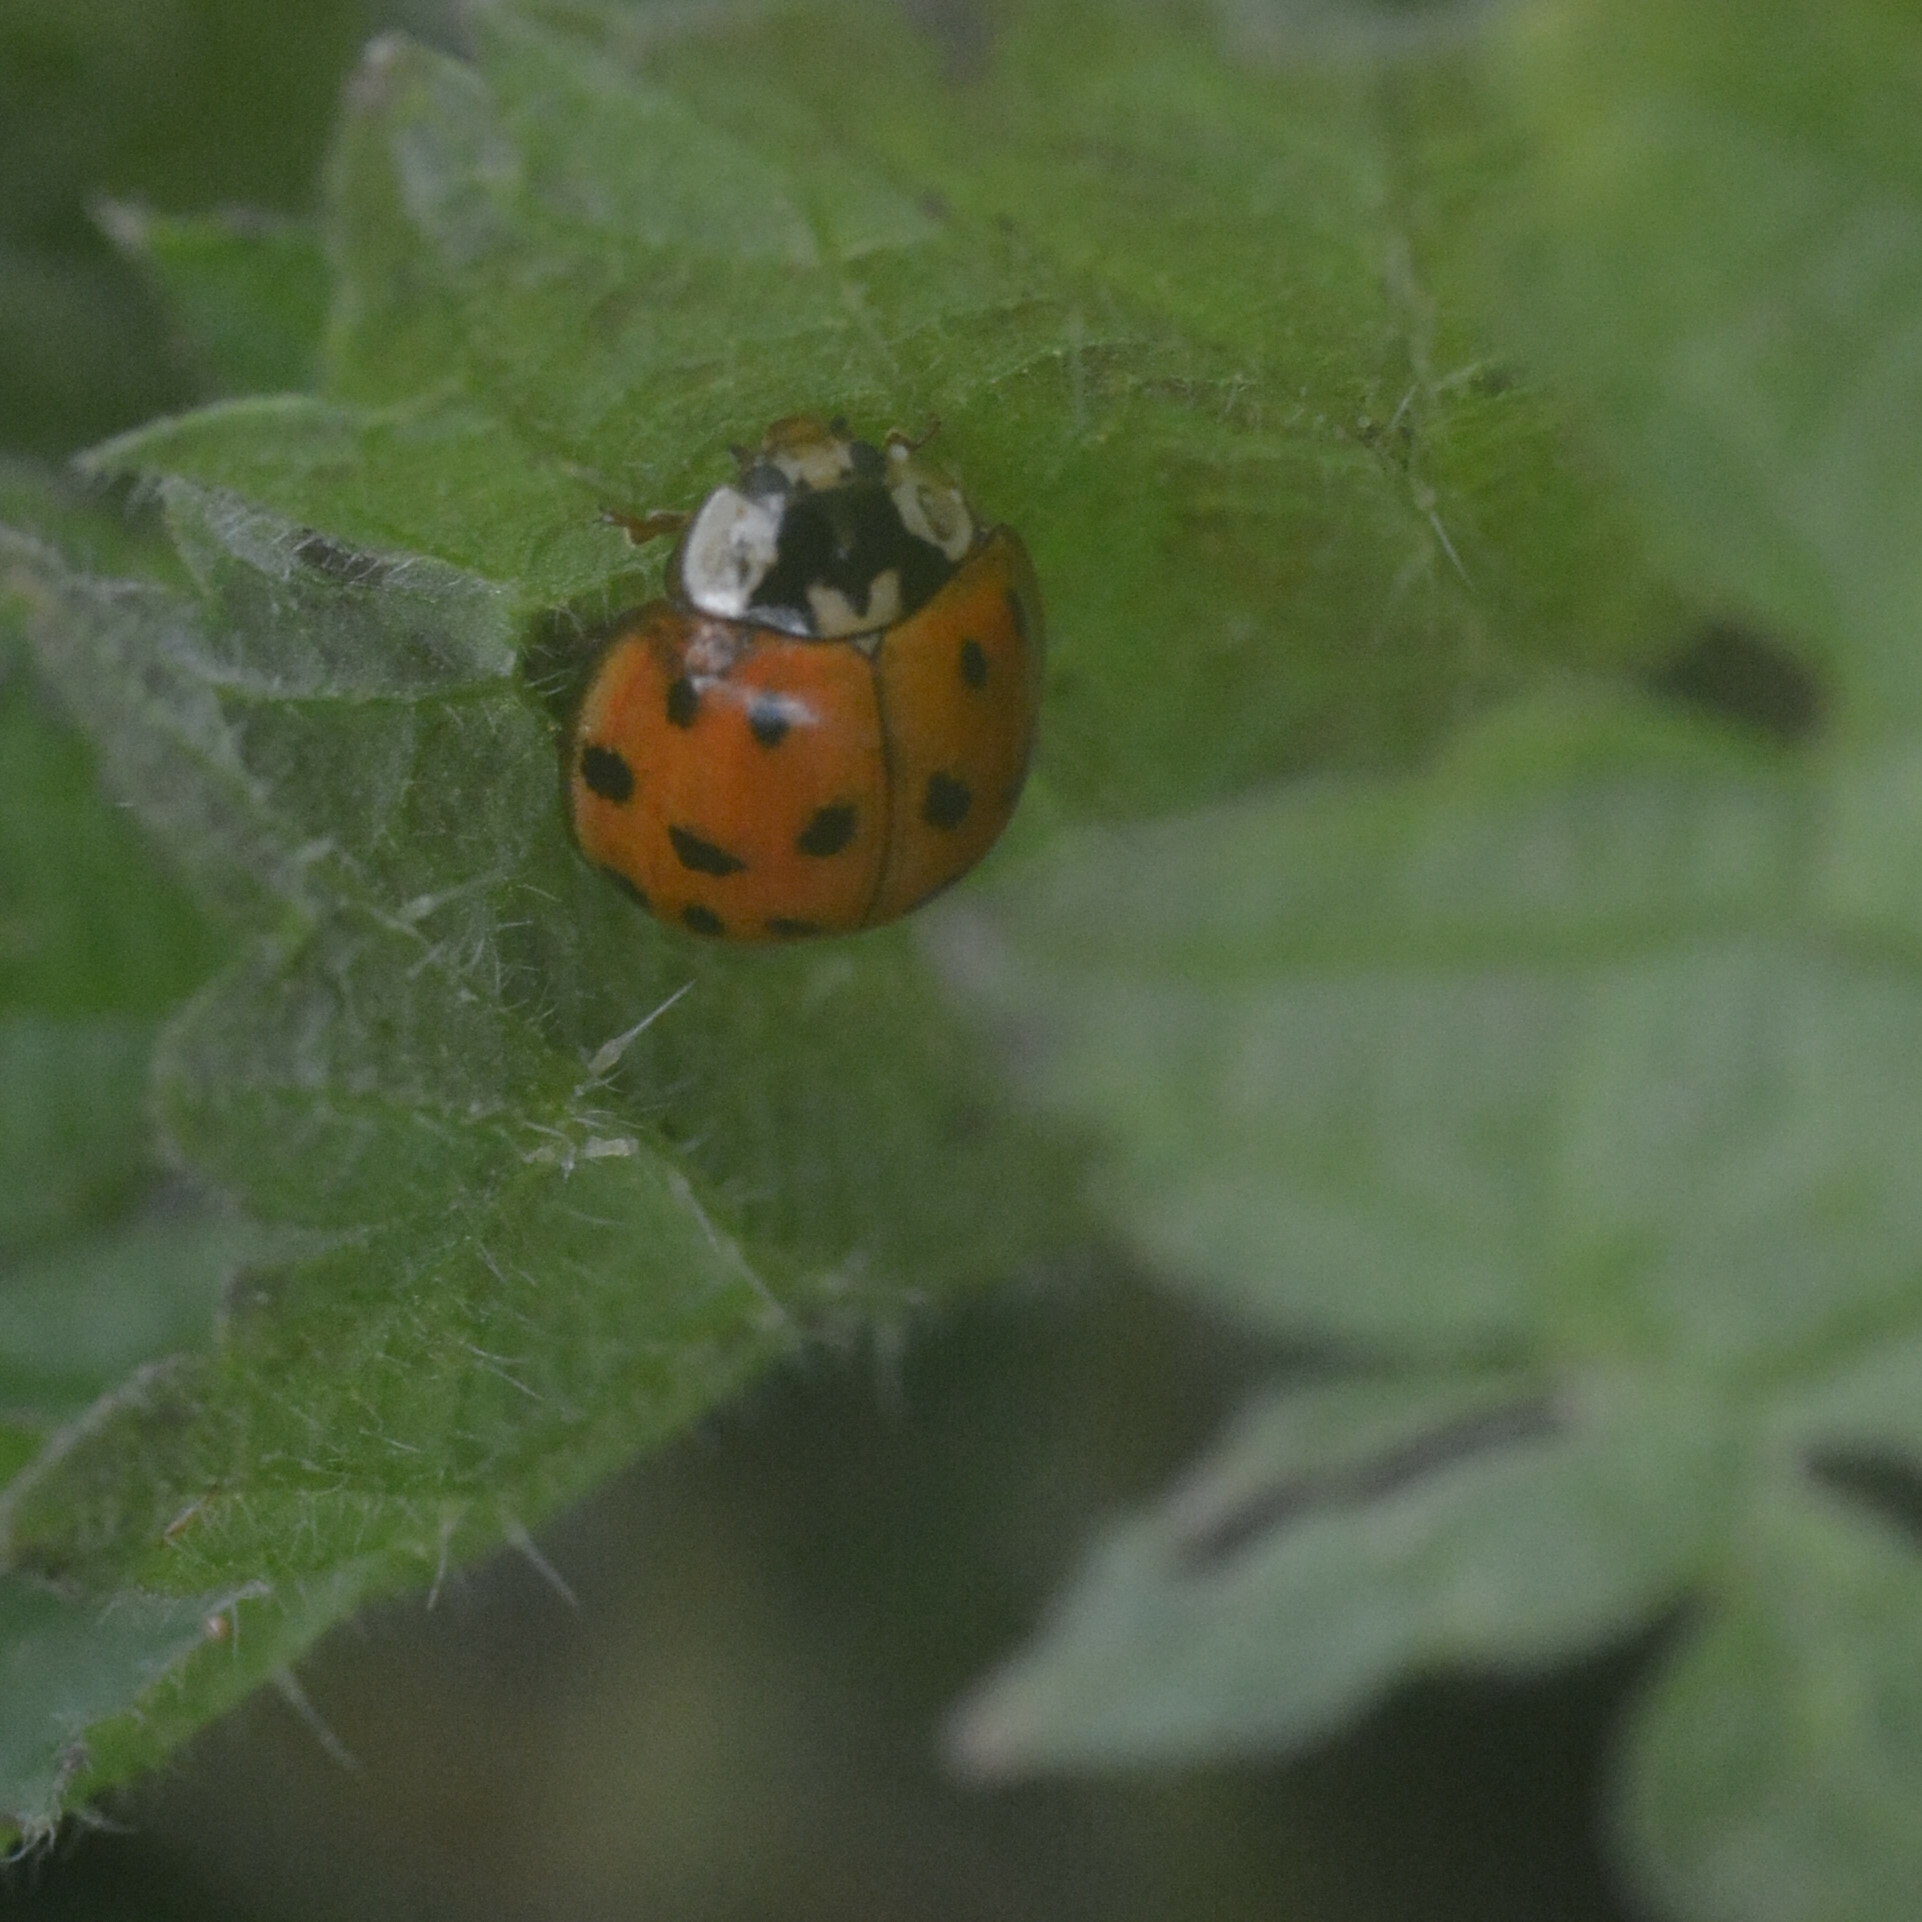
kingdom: Animalia
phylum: Arthropoda
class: Insecta
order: Coleoptera
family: Coccinellidae
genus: Harmonia
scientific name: Harmonia axyridis
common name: Harlequin ladybird
